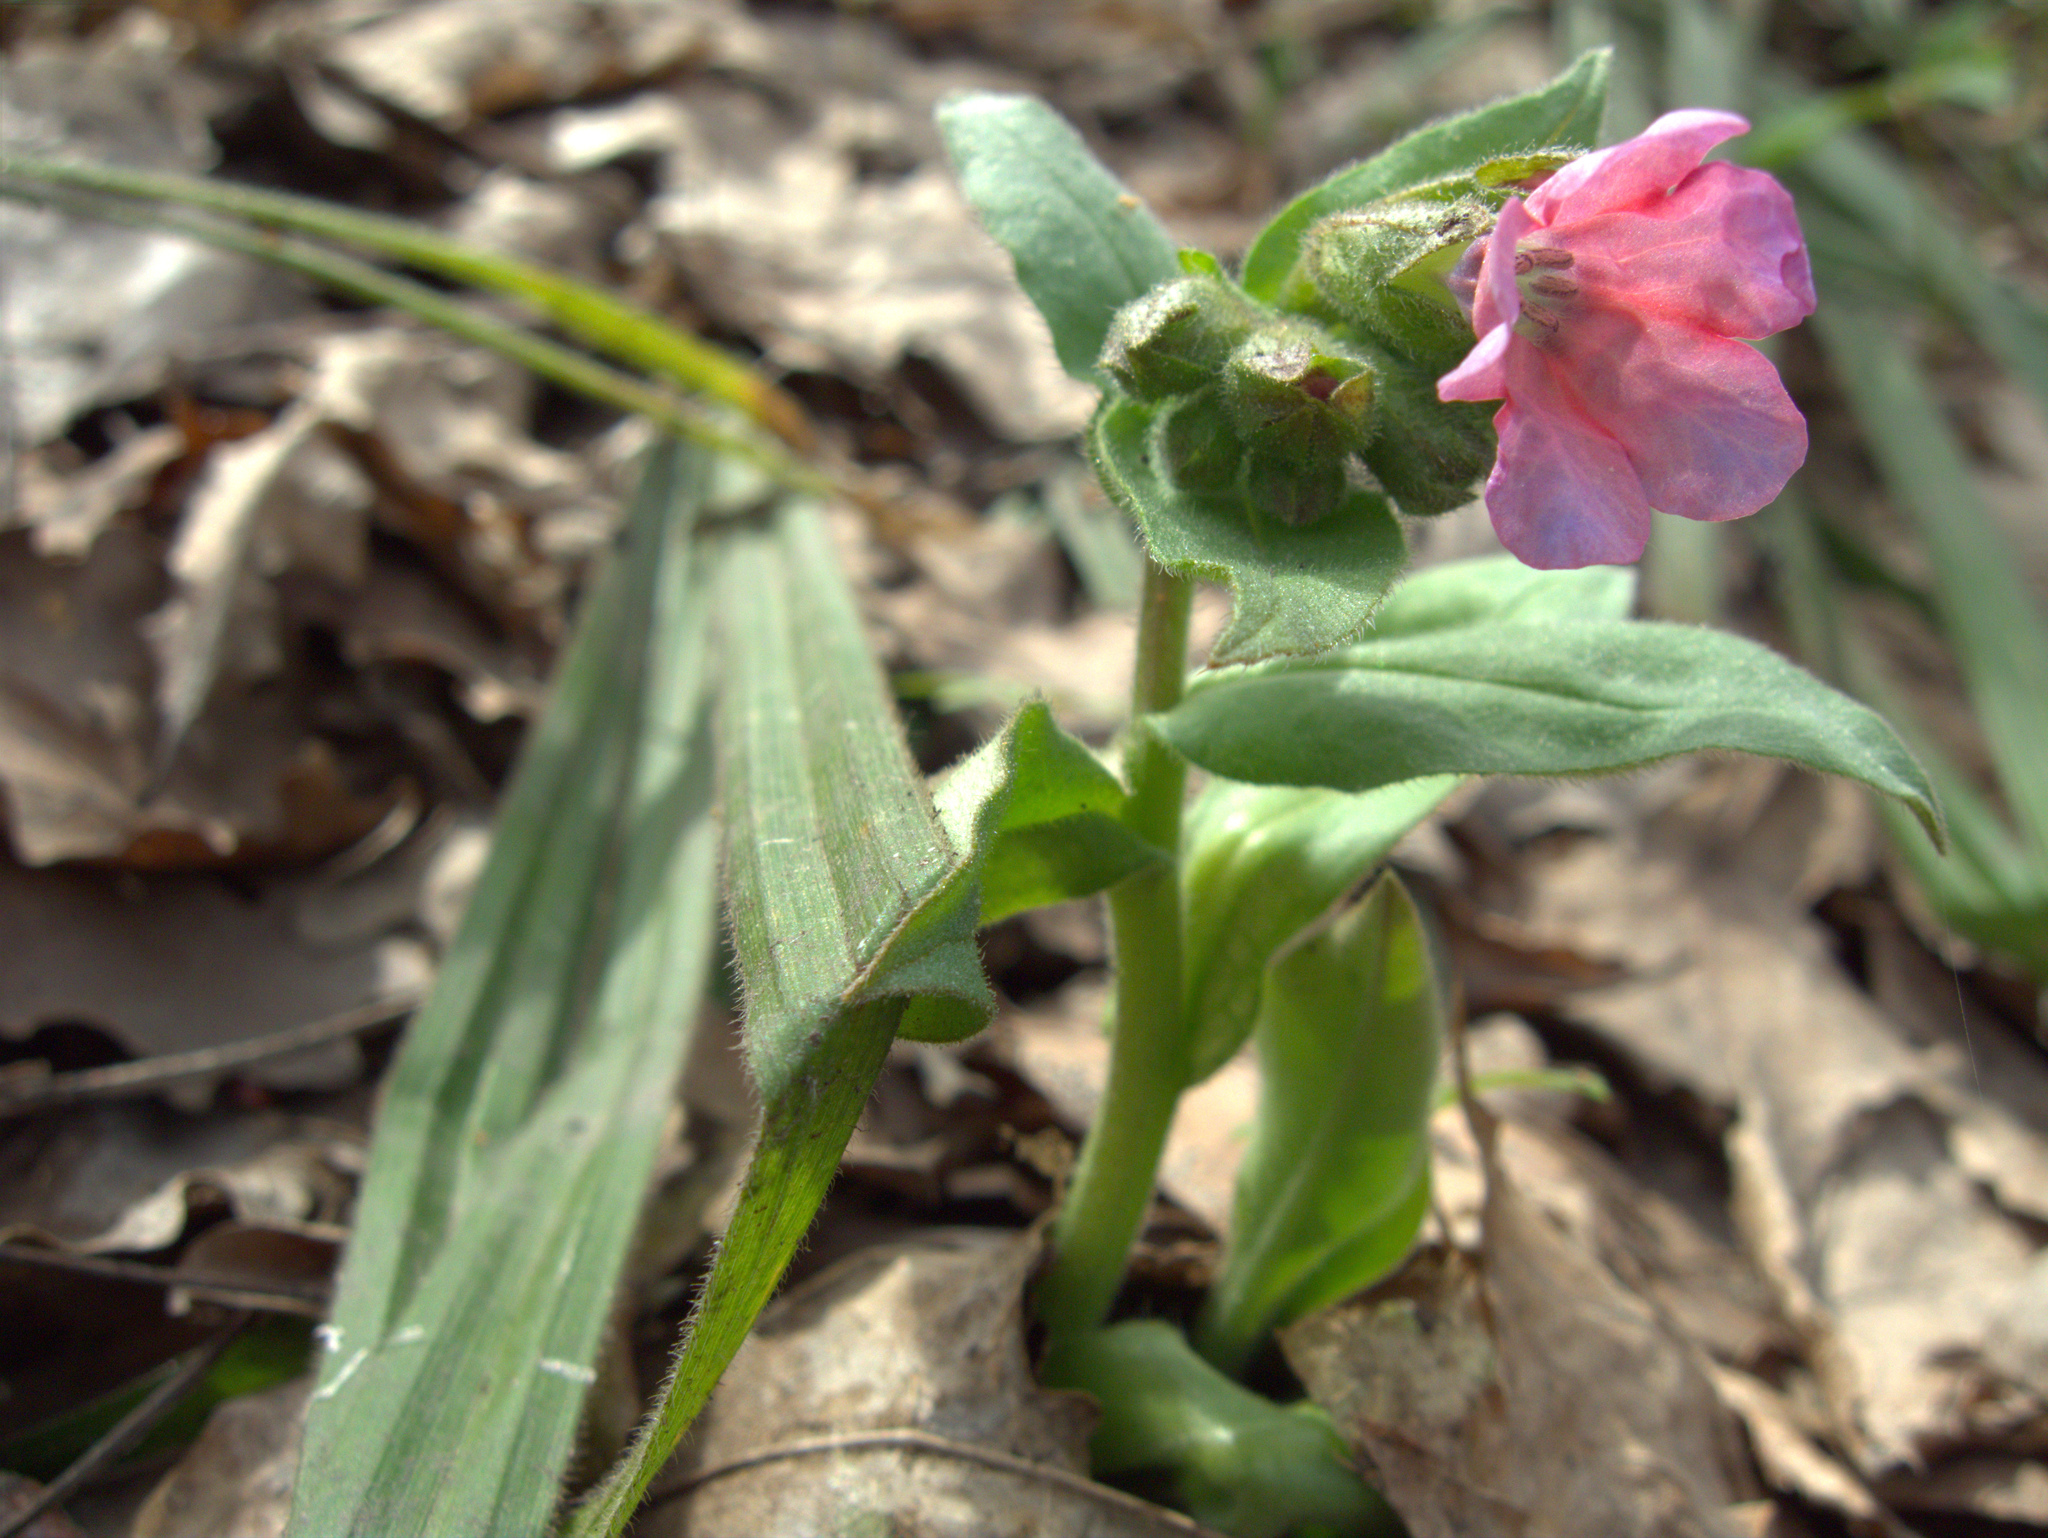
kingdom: Plantae
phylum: Tracheophyta
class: Magnoliopsida
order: Boraginales
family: Boraginaceae
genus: Pulmonaria
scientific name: Pulmonaria obscura
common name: Suffolk lungwort
